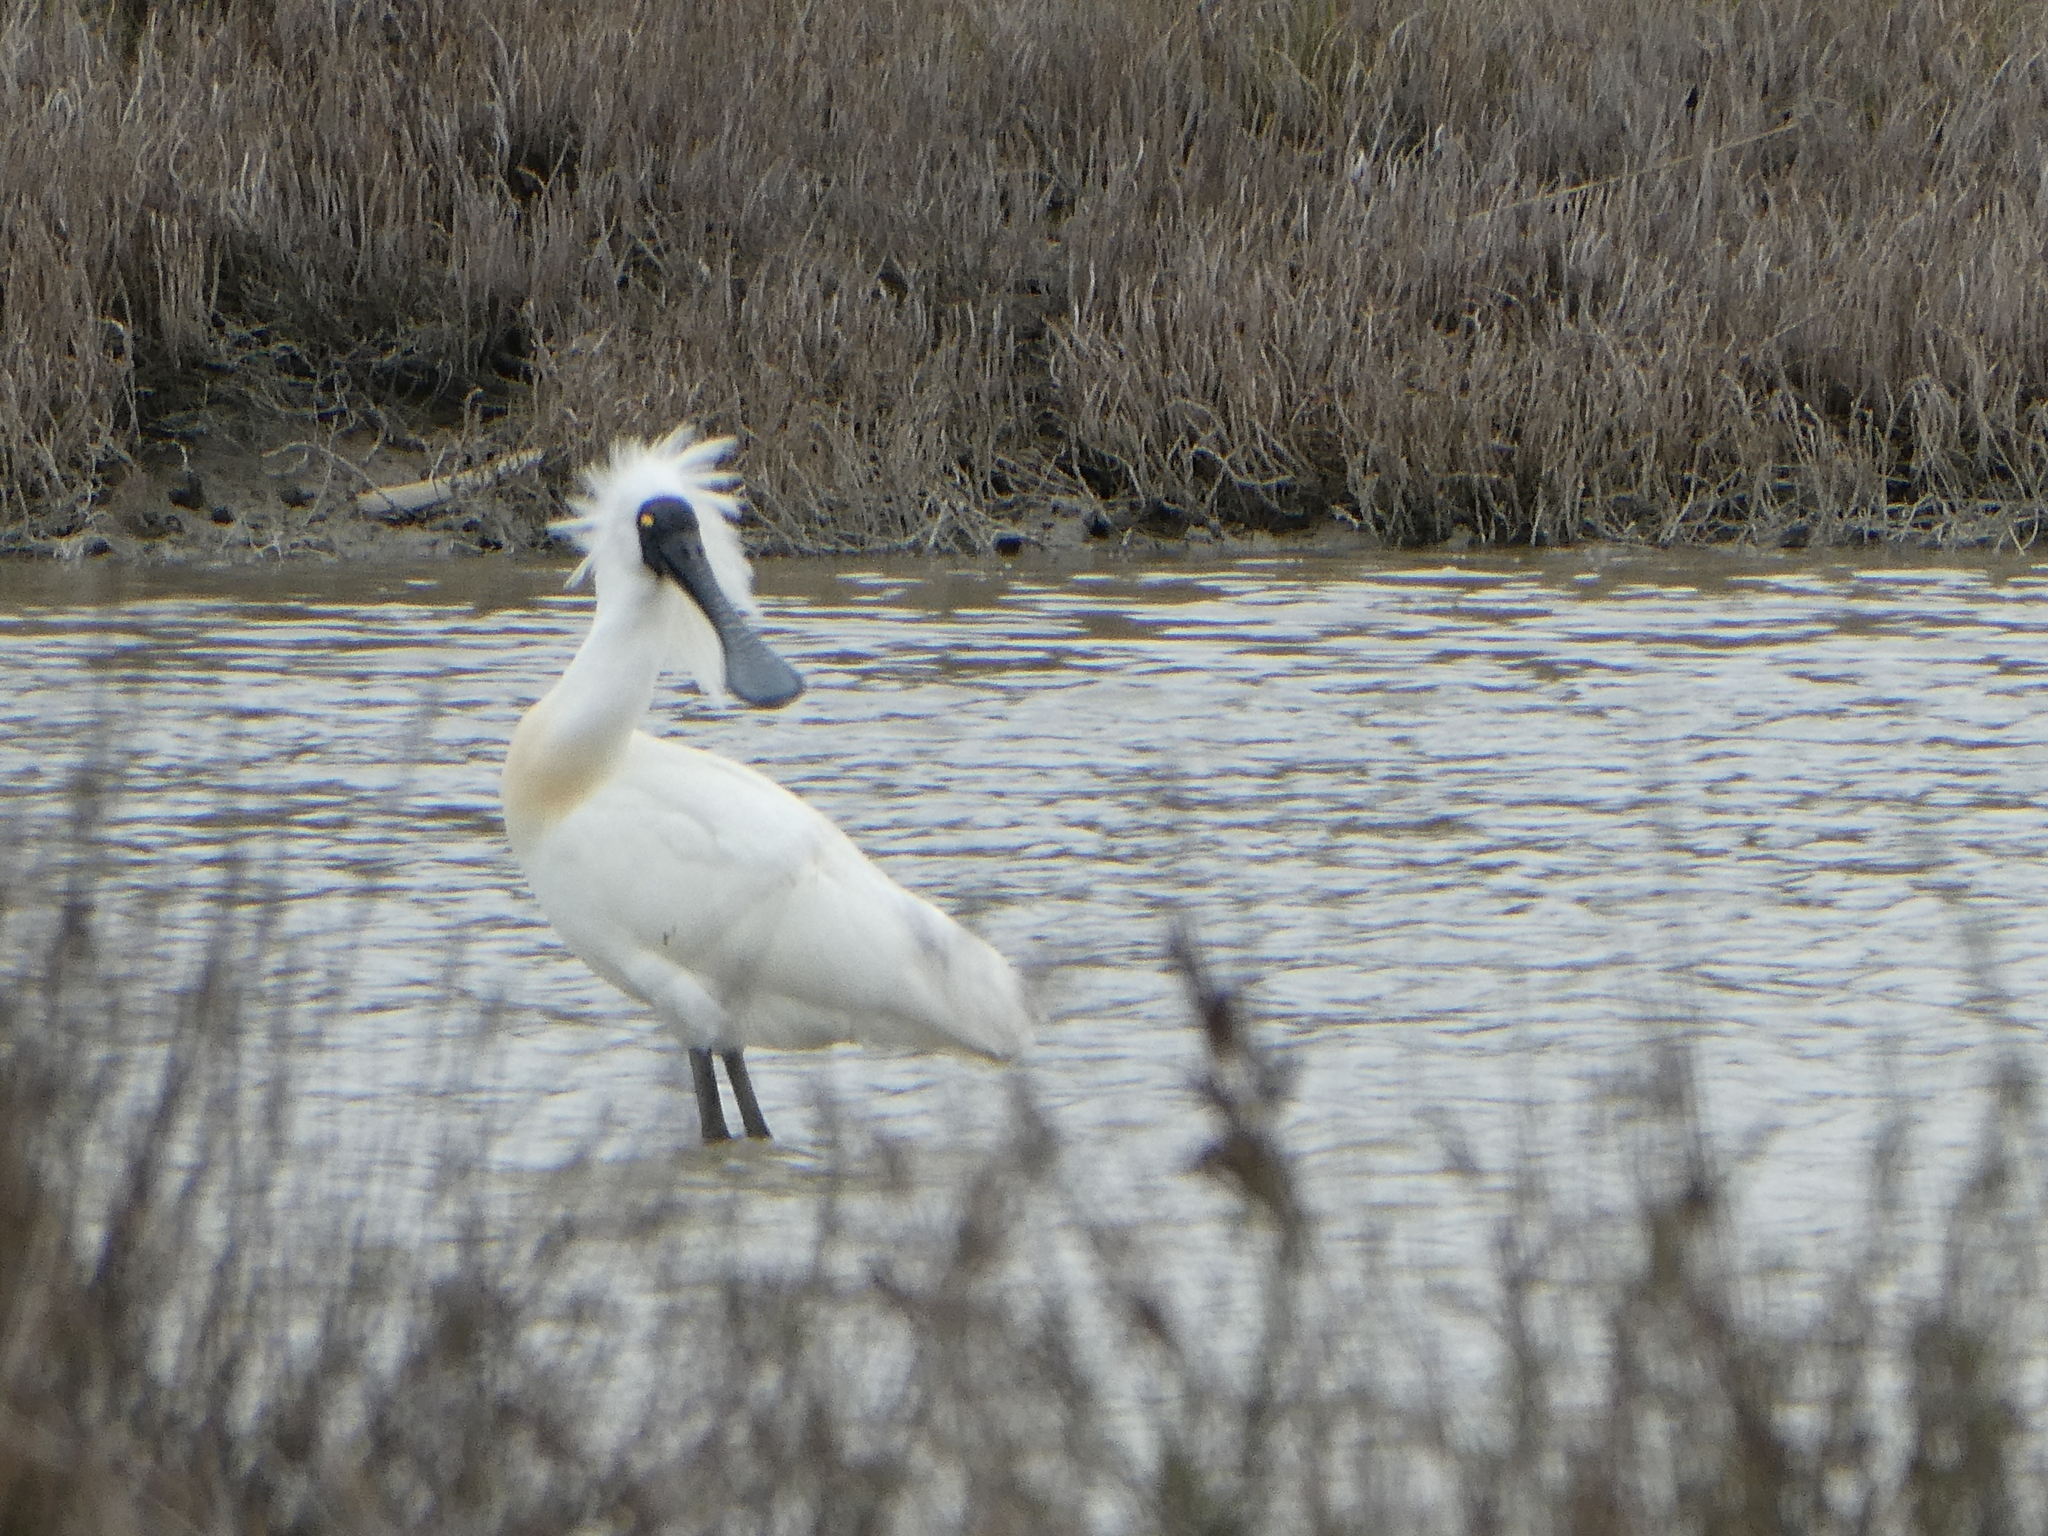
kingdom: Animalia
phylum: Chordata
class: Aves
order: Pelecaniformes
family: Threskiornithidae
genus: Platalea
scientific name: Platalea regia
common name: Royal spoonbill
